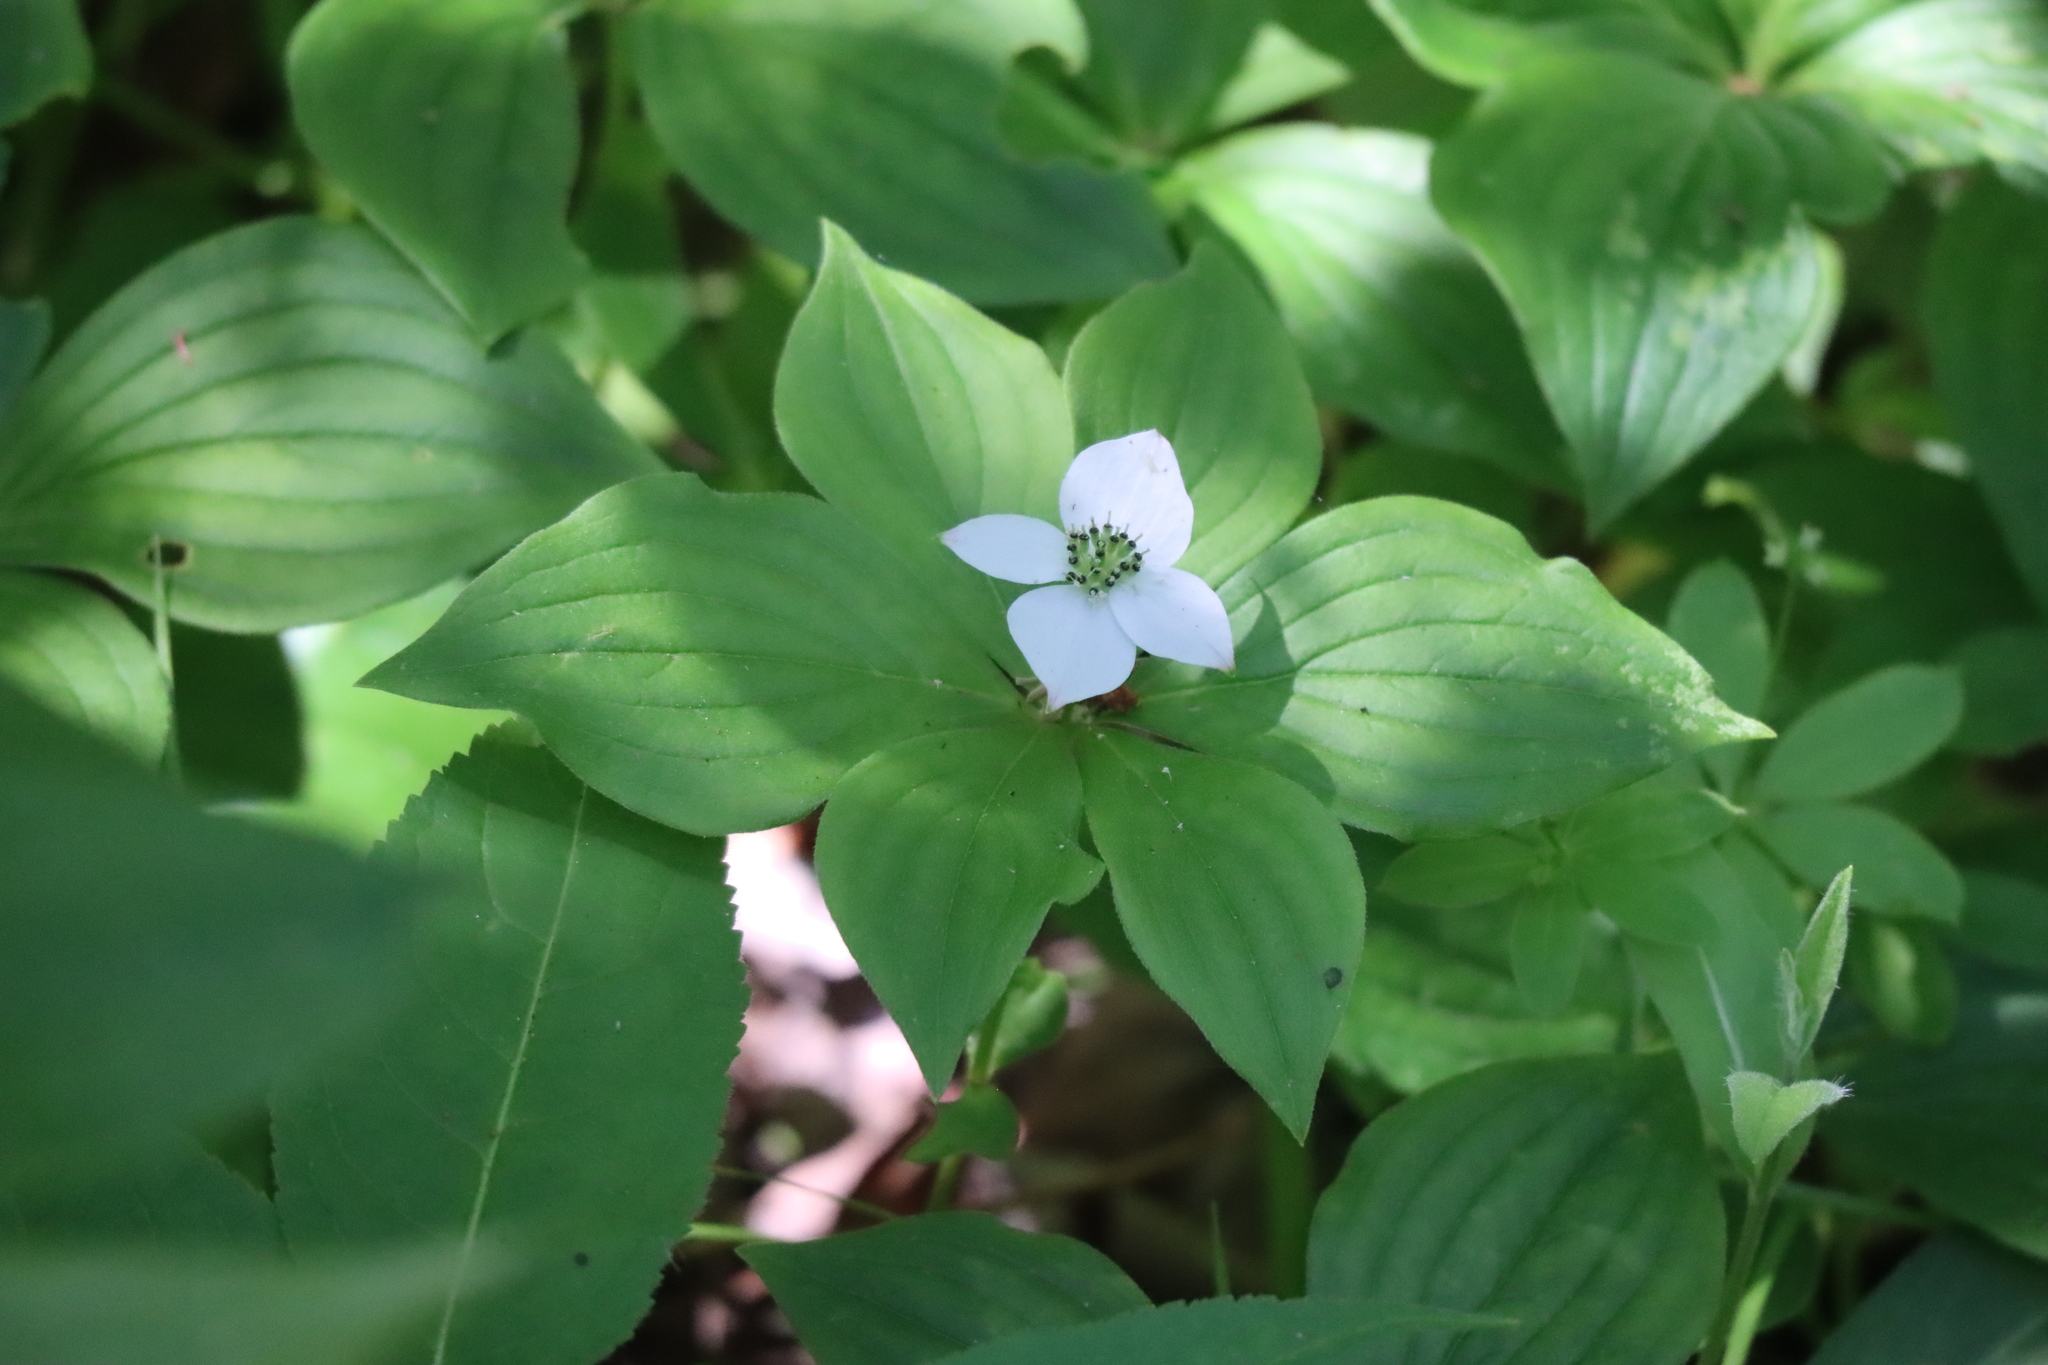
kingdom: Plantae
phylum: Tracheophyta
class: Magnoliopsida
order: Cornales
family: Cornaceae
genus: Cornus
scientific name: Cornus canadensis
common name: Creeping dogwood
